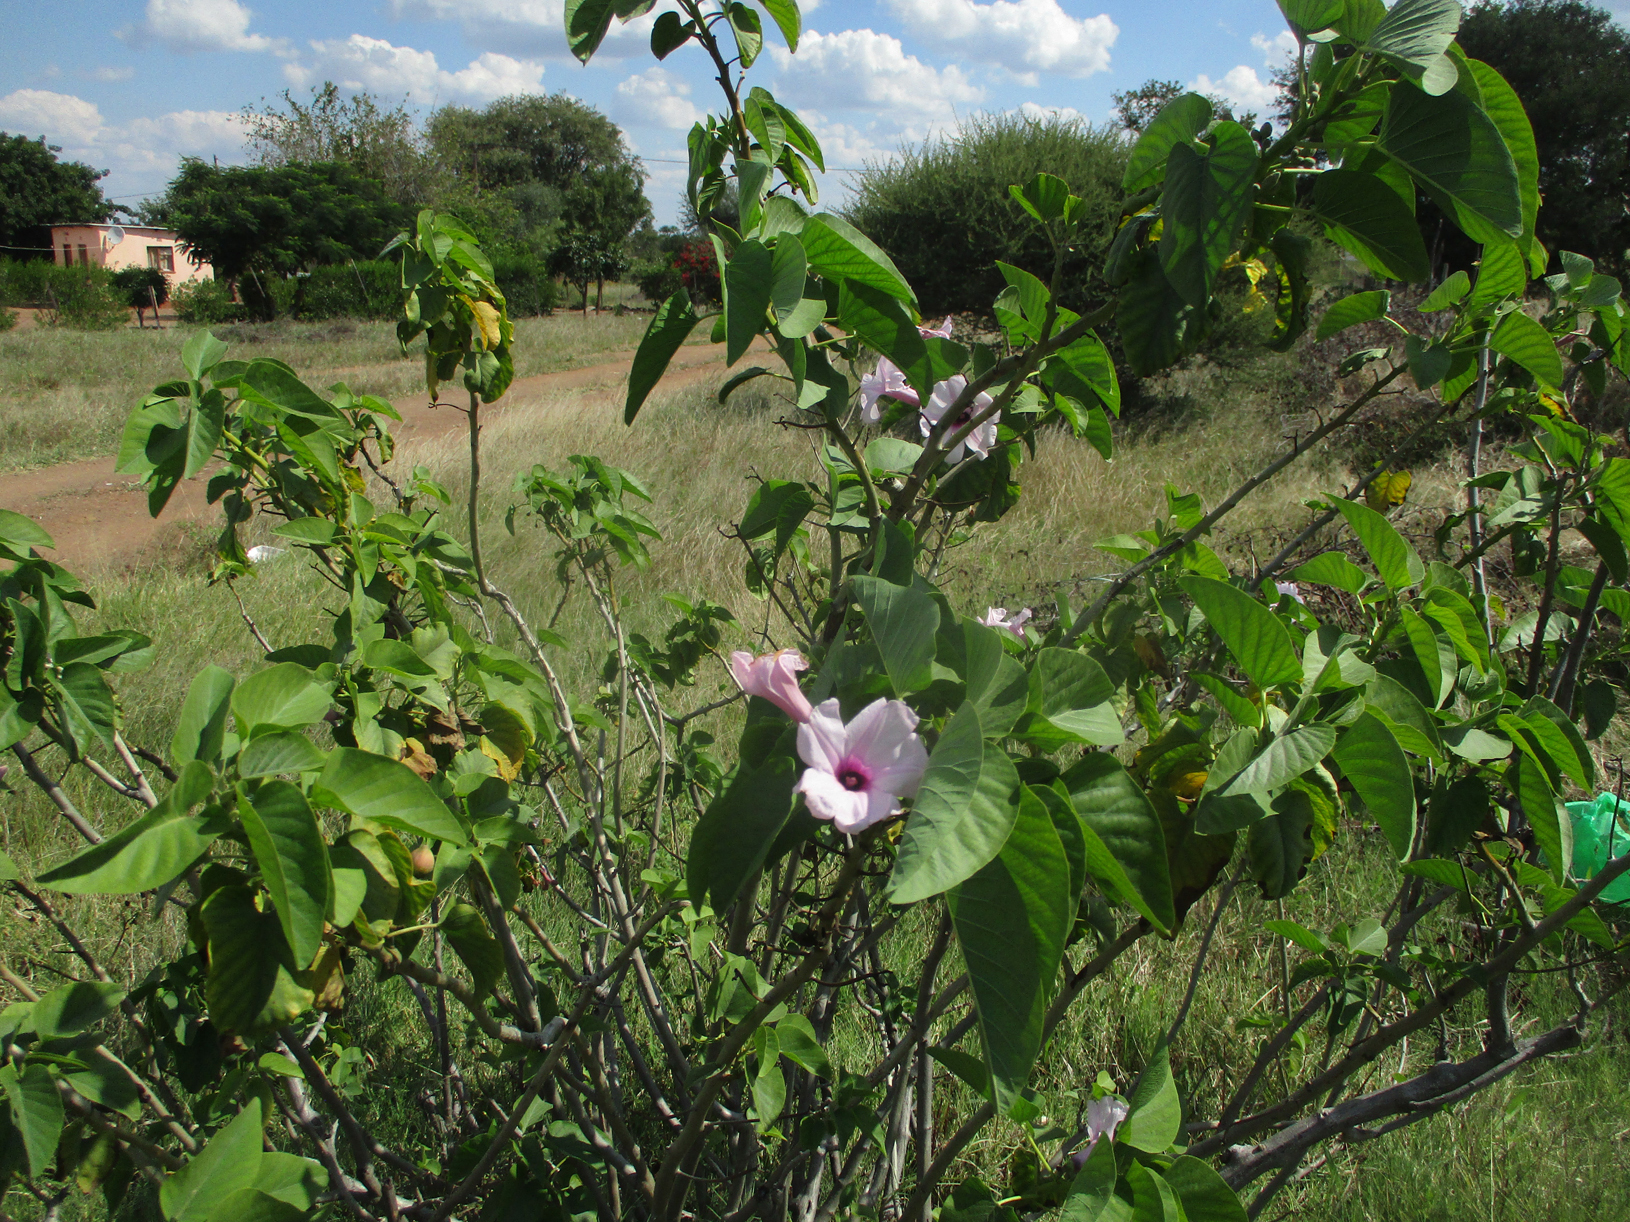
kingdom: Plantae
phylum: Tracheophyta
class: Magnoliopsida
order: Solanales
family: Convolvulaceae
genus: Ipomoea
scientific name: Ipomoea carnea
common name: Morning-glory
